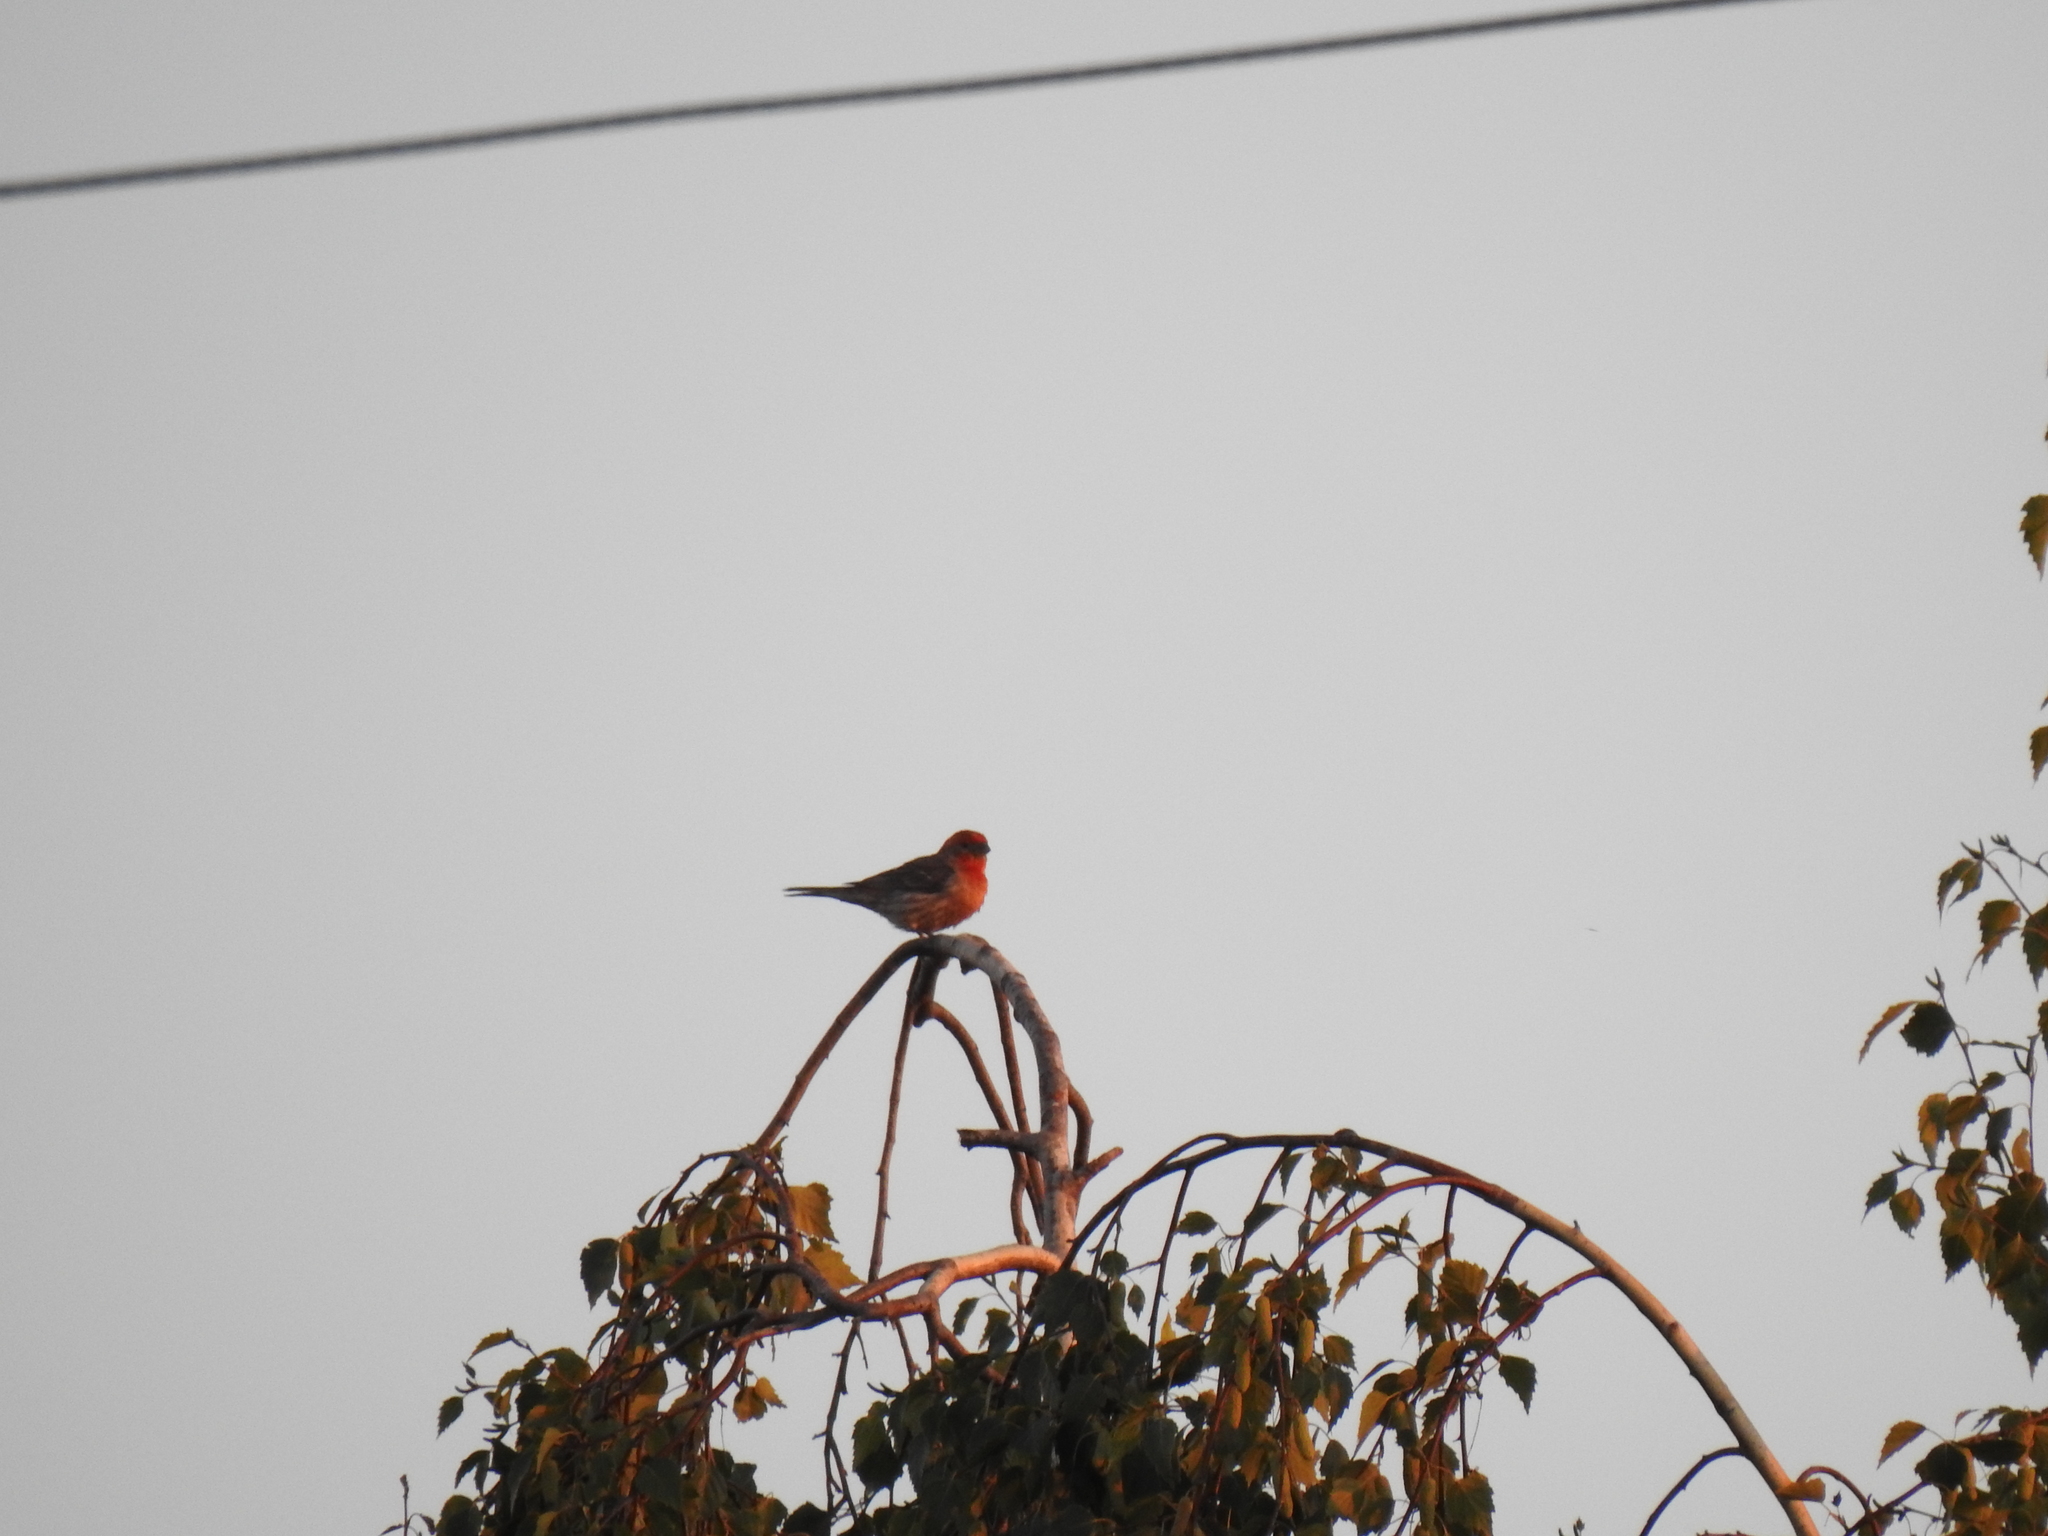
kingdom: Animalia
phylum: Chordata
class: Aves
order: Passeriformes
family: Fringillidae
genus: Haemorhous
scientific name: Haemorhous mexicanus
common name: House finch
